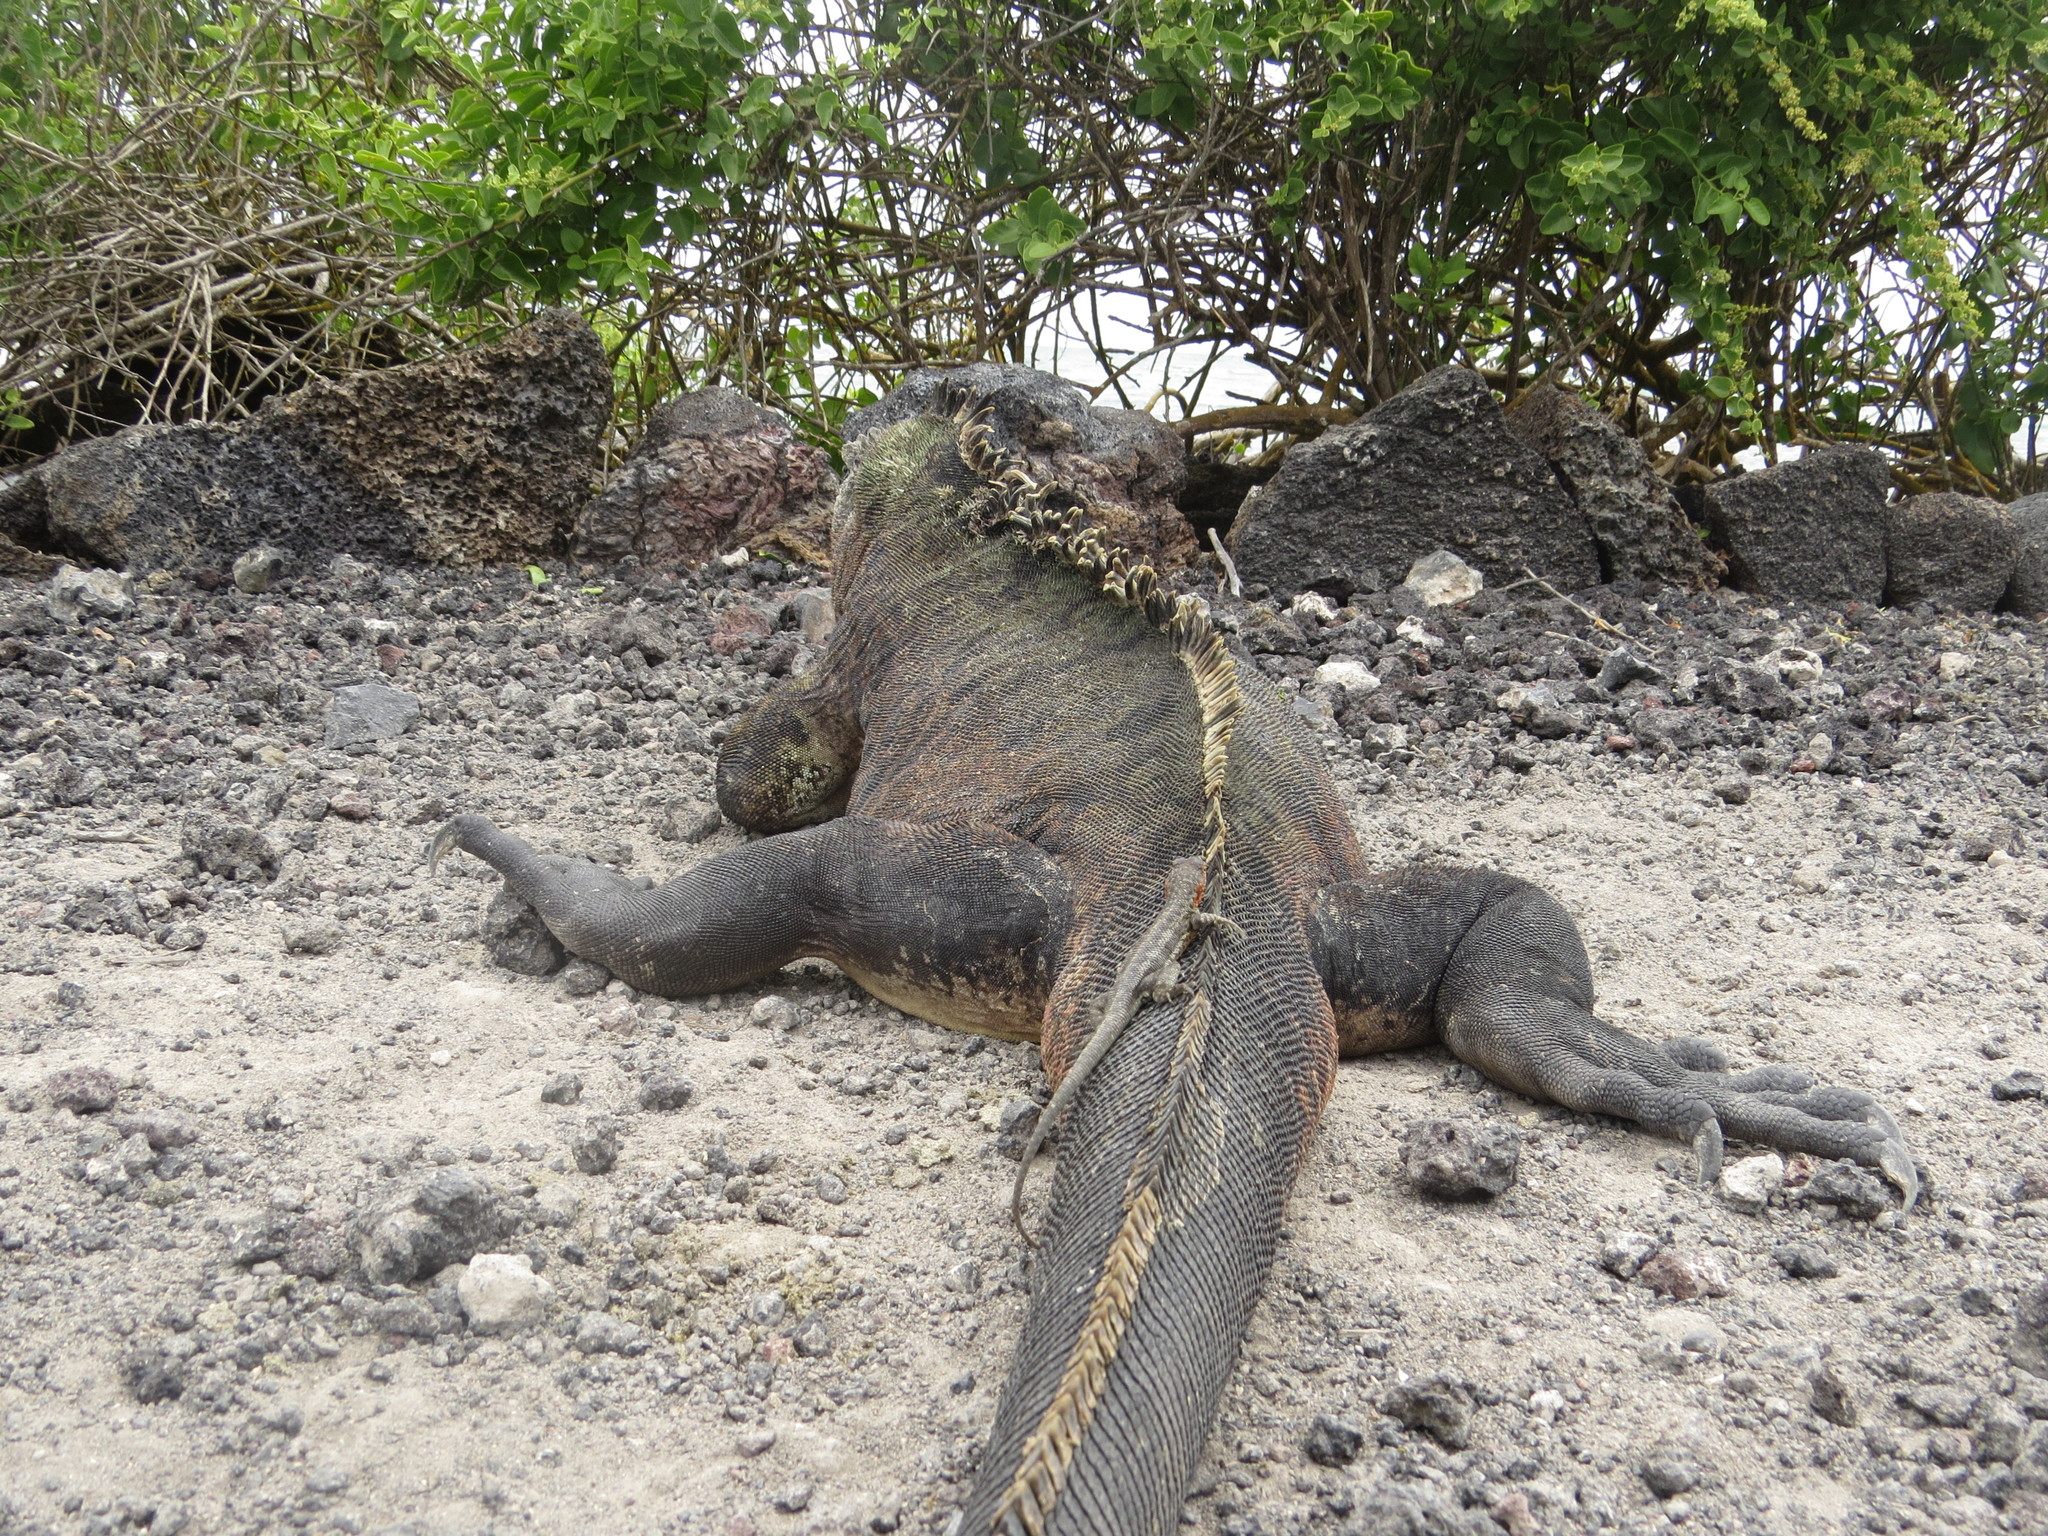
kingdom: Animalia
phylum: Chordata
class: Squamata
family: Iguanidae
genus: Amblyrhynchus
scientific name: Amblyrhynchus cristatus
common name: Marine iguana
